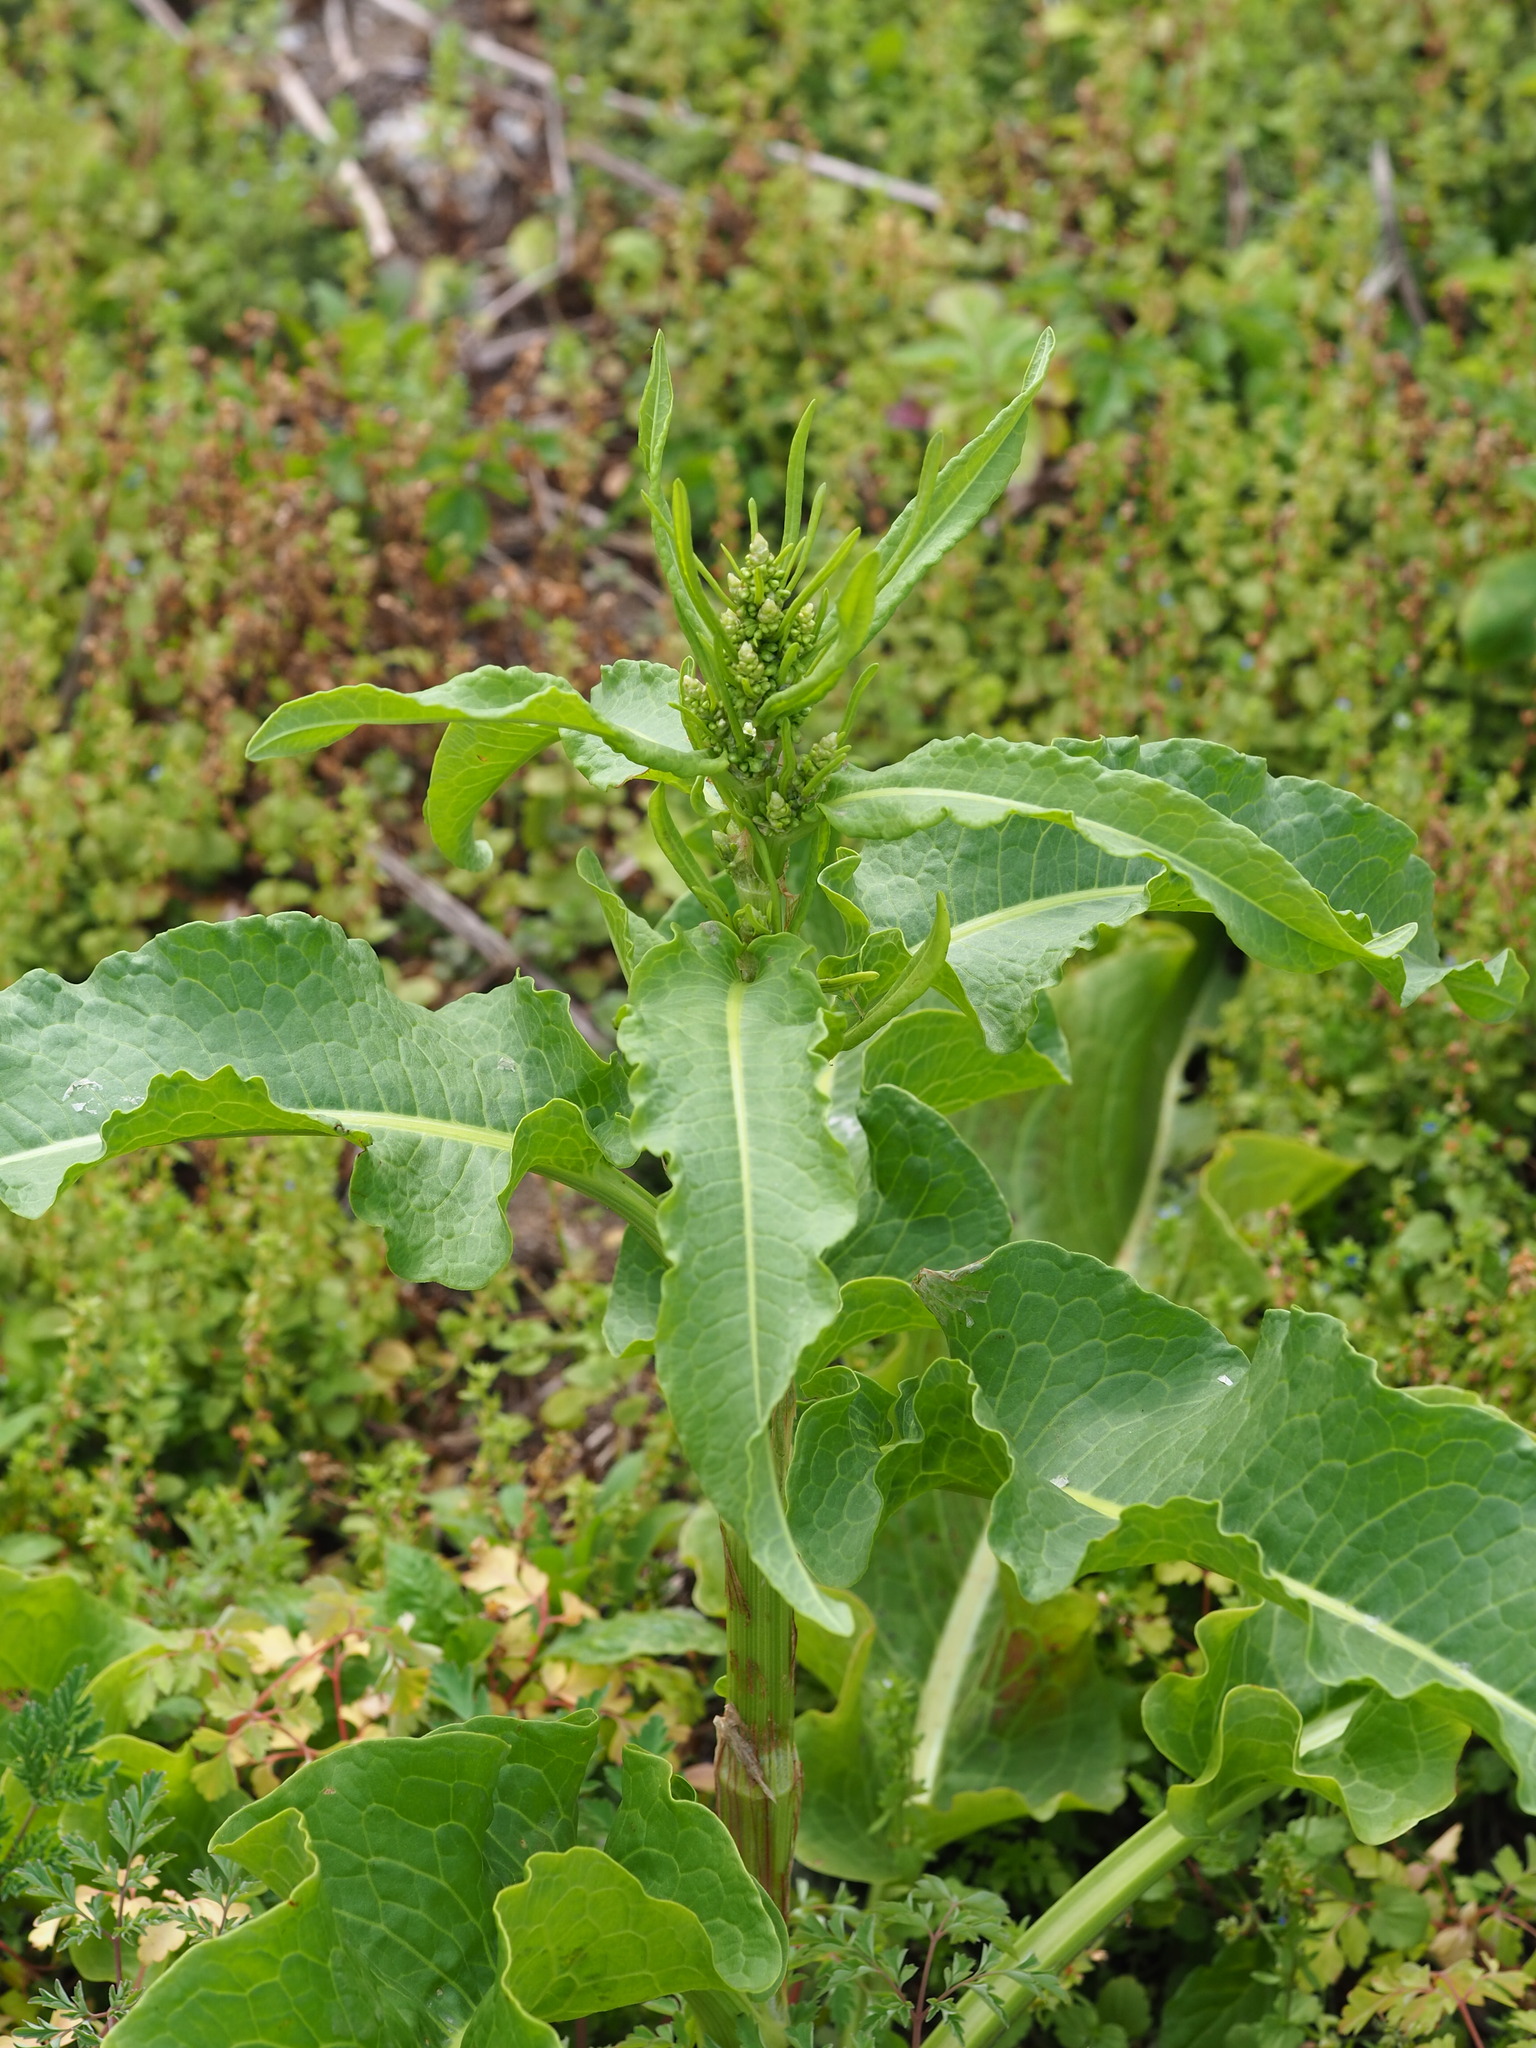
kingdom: Plantae
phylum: Tracheophyta
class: Magnoliopsida
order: Caryophyllales
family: Polygonaceae
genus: Rumex
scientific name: Rumex japonicus
